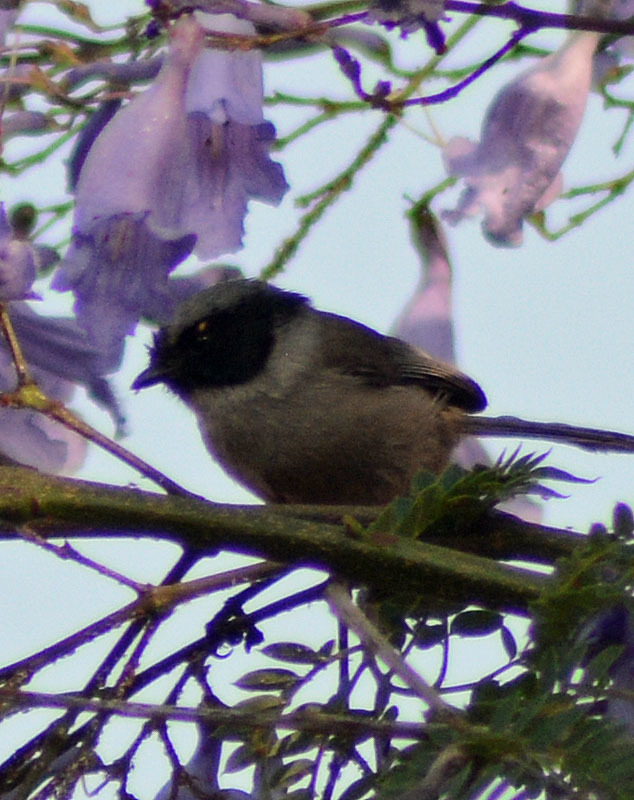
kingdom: Animalia
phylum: Chordata
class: Aves
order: Passeriformes
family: Aegithalidae
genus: Psaltriparus
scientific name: Psaltriparus minimus
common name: American bushtit
